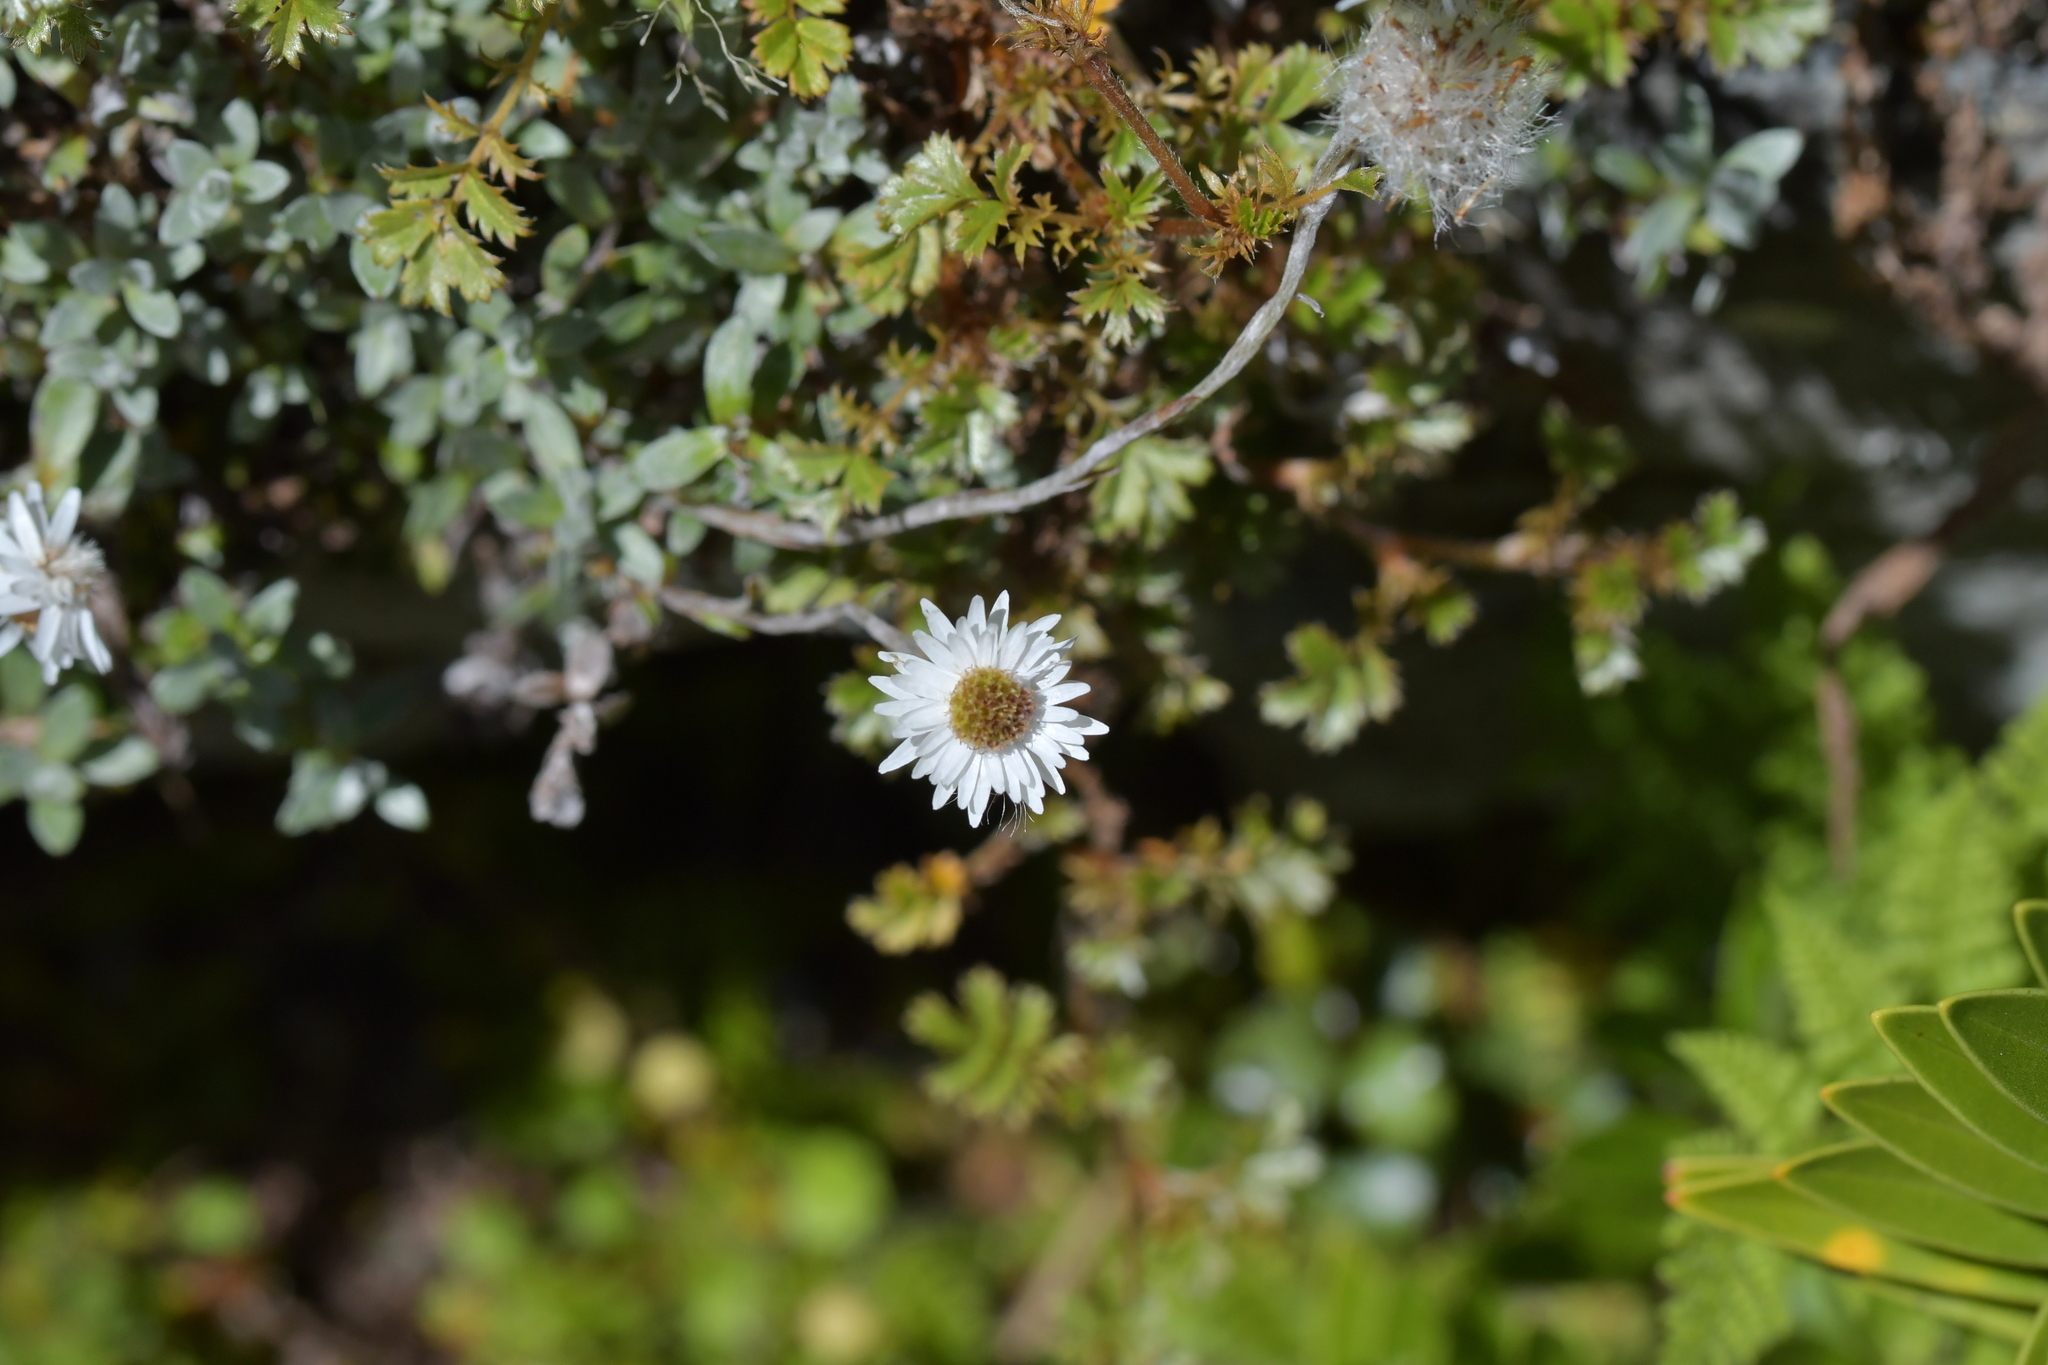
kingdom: Plantae
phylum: Tracheophyta
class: Magnoliopsida
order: Asterales
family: Asteraceae
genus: Anaphalioides
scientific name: Anaphalioides bellidioides
